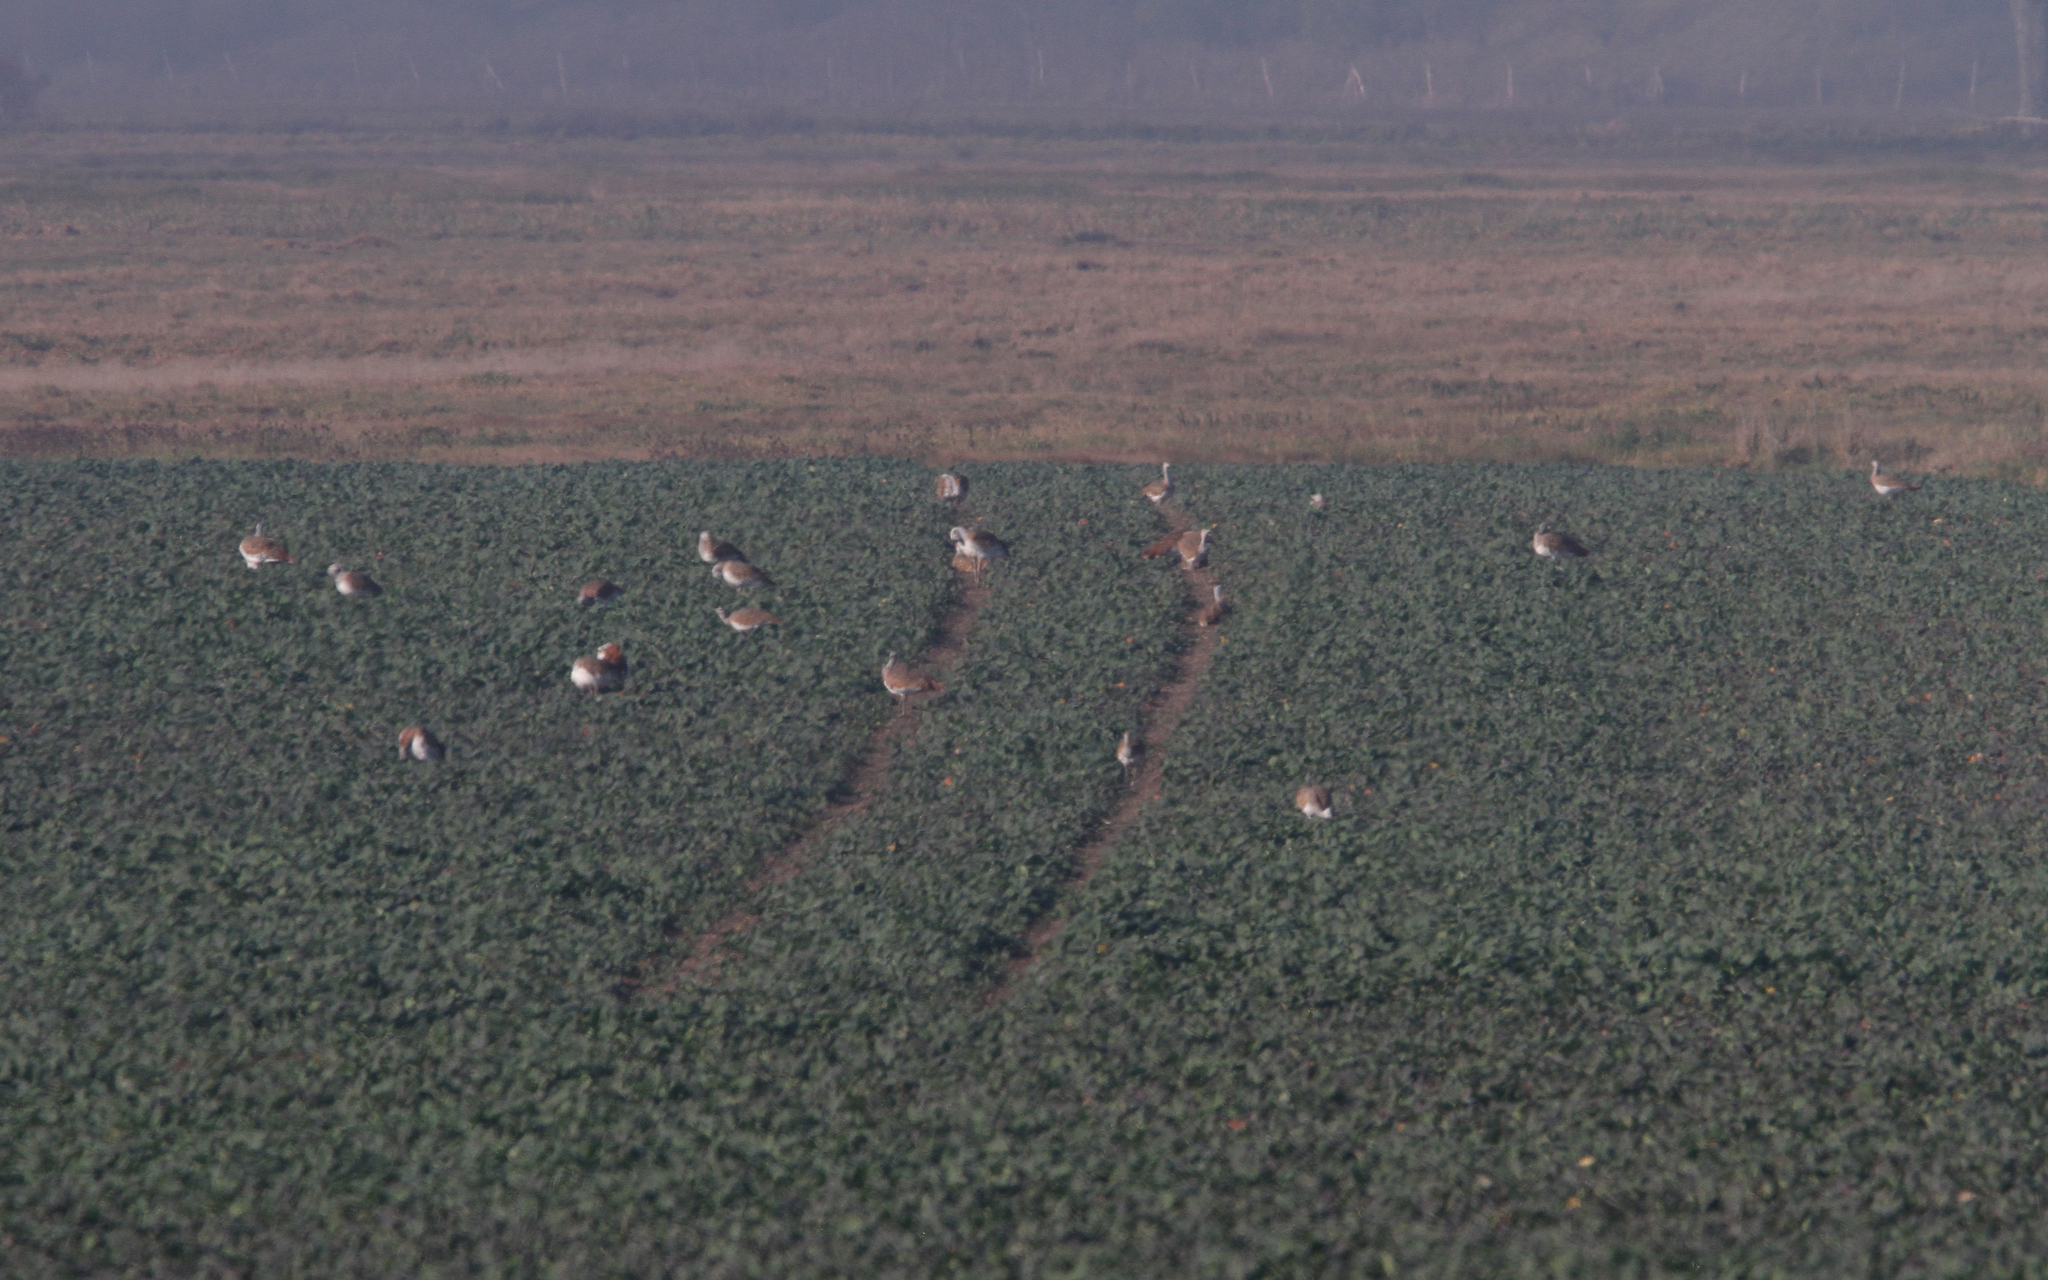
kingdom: Animalia
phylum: Chordata
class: Aves
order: Otidiformes
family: Otididae
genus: Otis
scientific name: Otis tarda
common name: Great bustard
